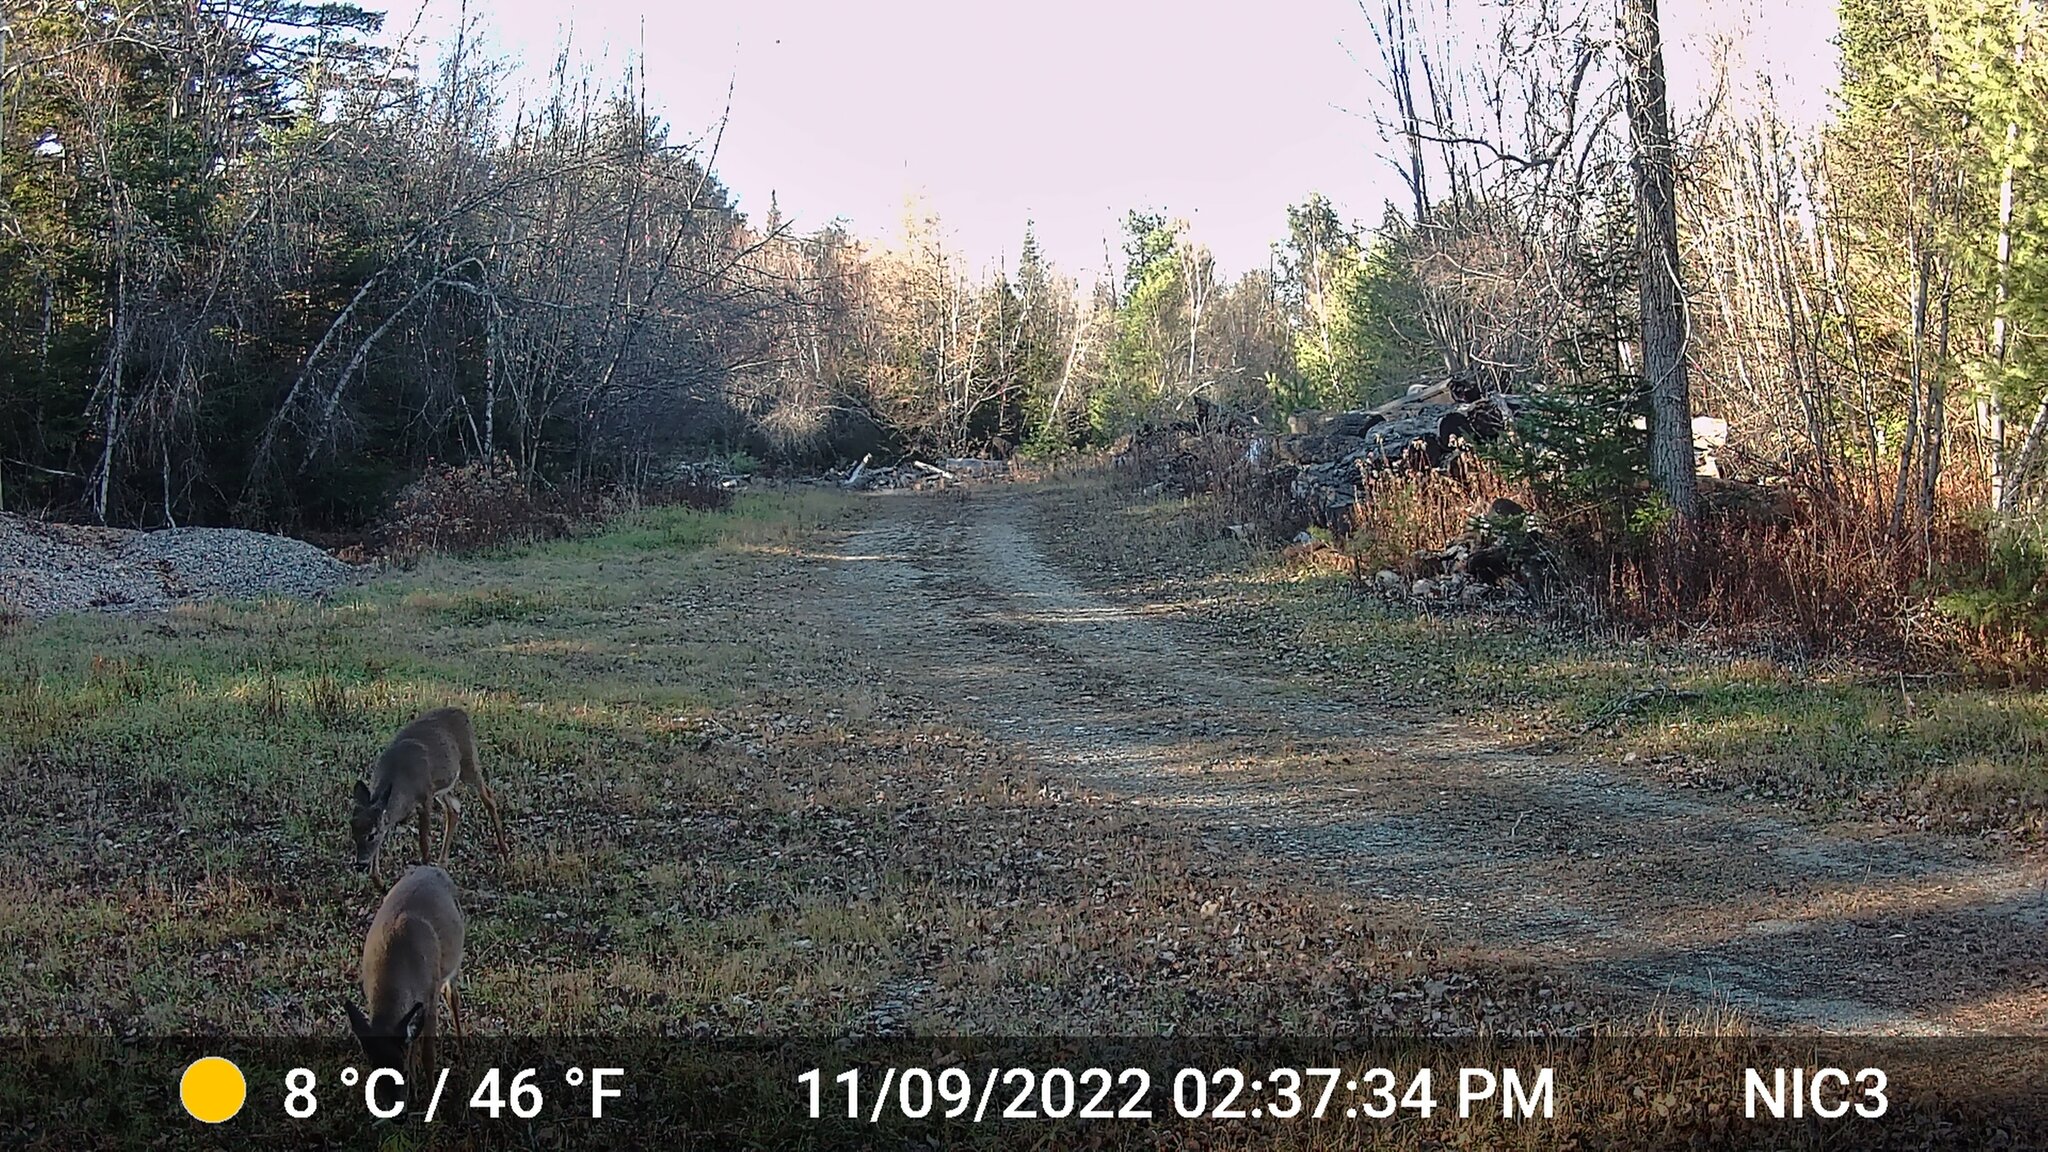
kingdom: Animalia
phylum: Chordata
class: Mammalia
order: Artiodactyla
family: Cervidae
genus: Odocoileus
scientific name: Odocoileus virginianus
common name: White-tailed deer
